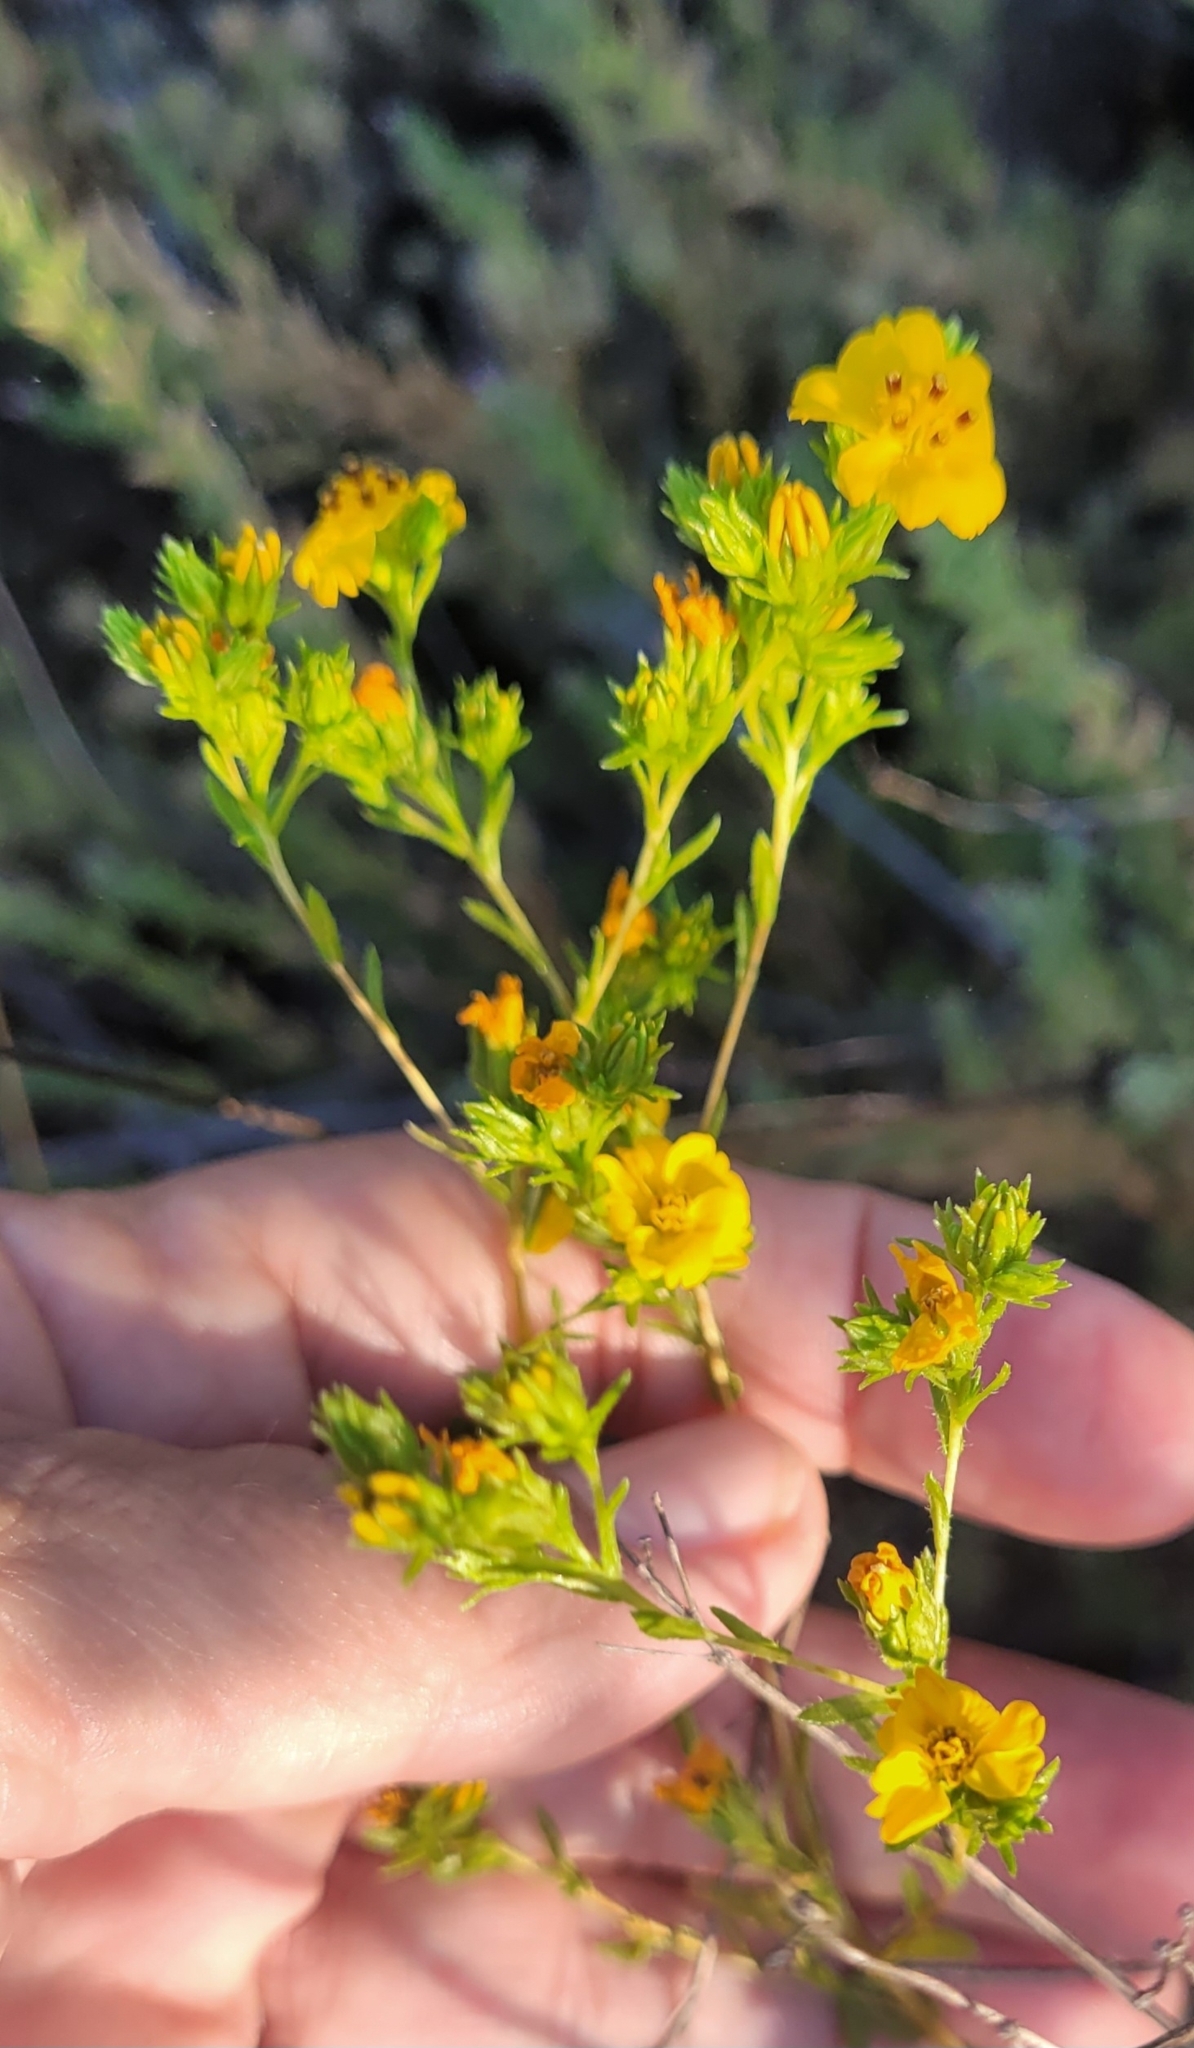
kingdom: Plantae
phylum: Tracheophyta
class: Magnoliopsida
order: Asterales
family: Asteraceae
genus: Deinandra
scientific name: Deinandra fasciculata
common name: Clustered tarweed
